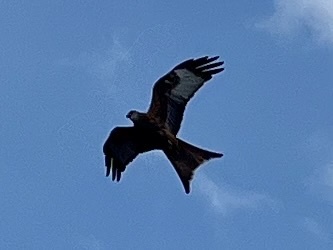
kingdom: Animalia
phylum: Chordata
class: Aves
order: Accipitriformes
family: Accipitridae
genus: Milvus
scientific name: Milvus milvus
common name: Red kite
